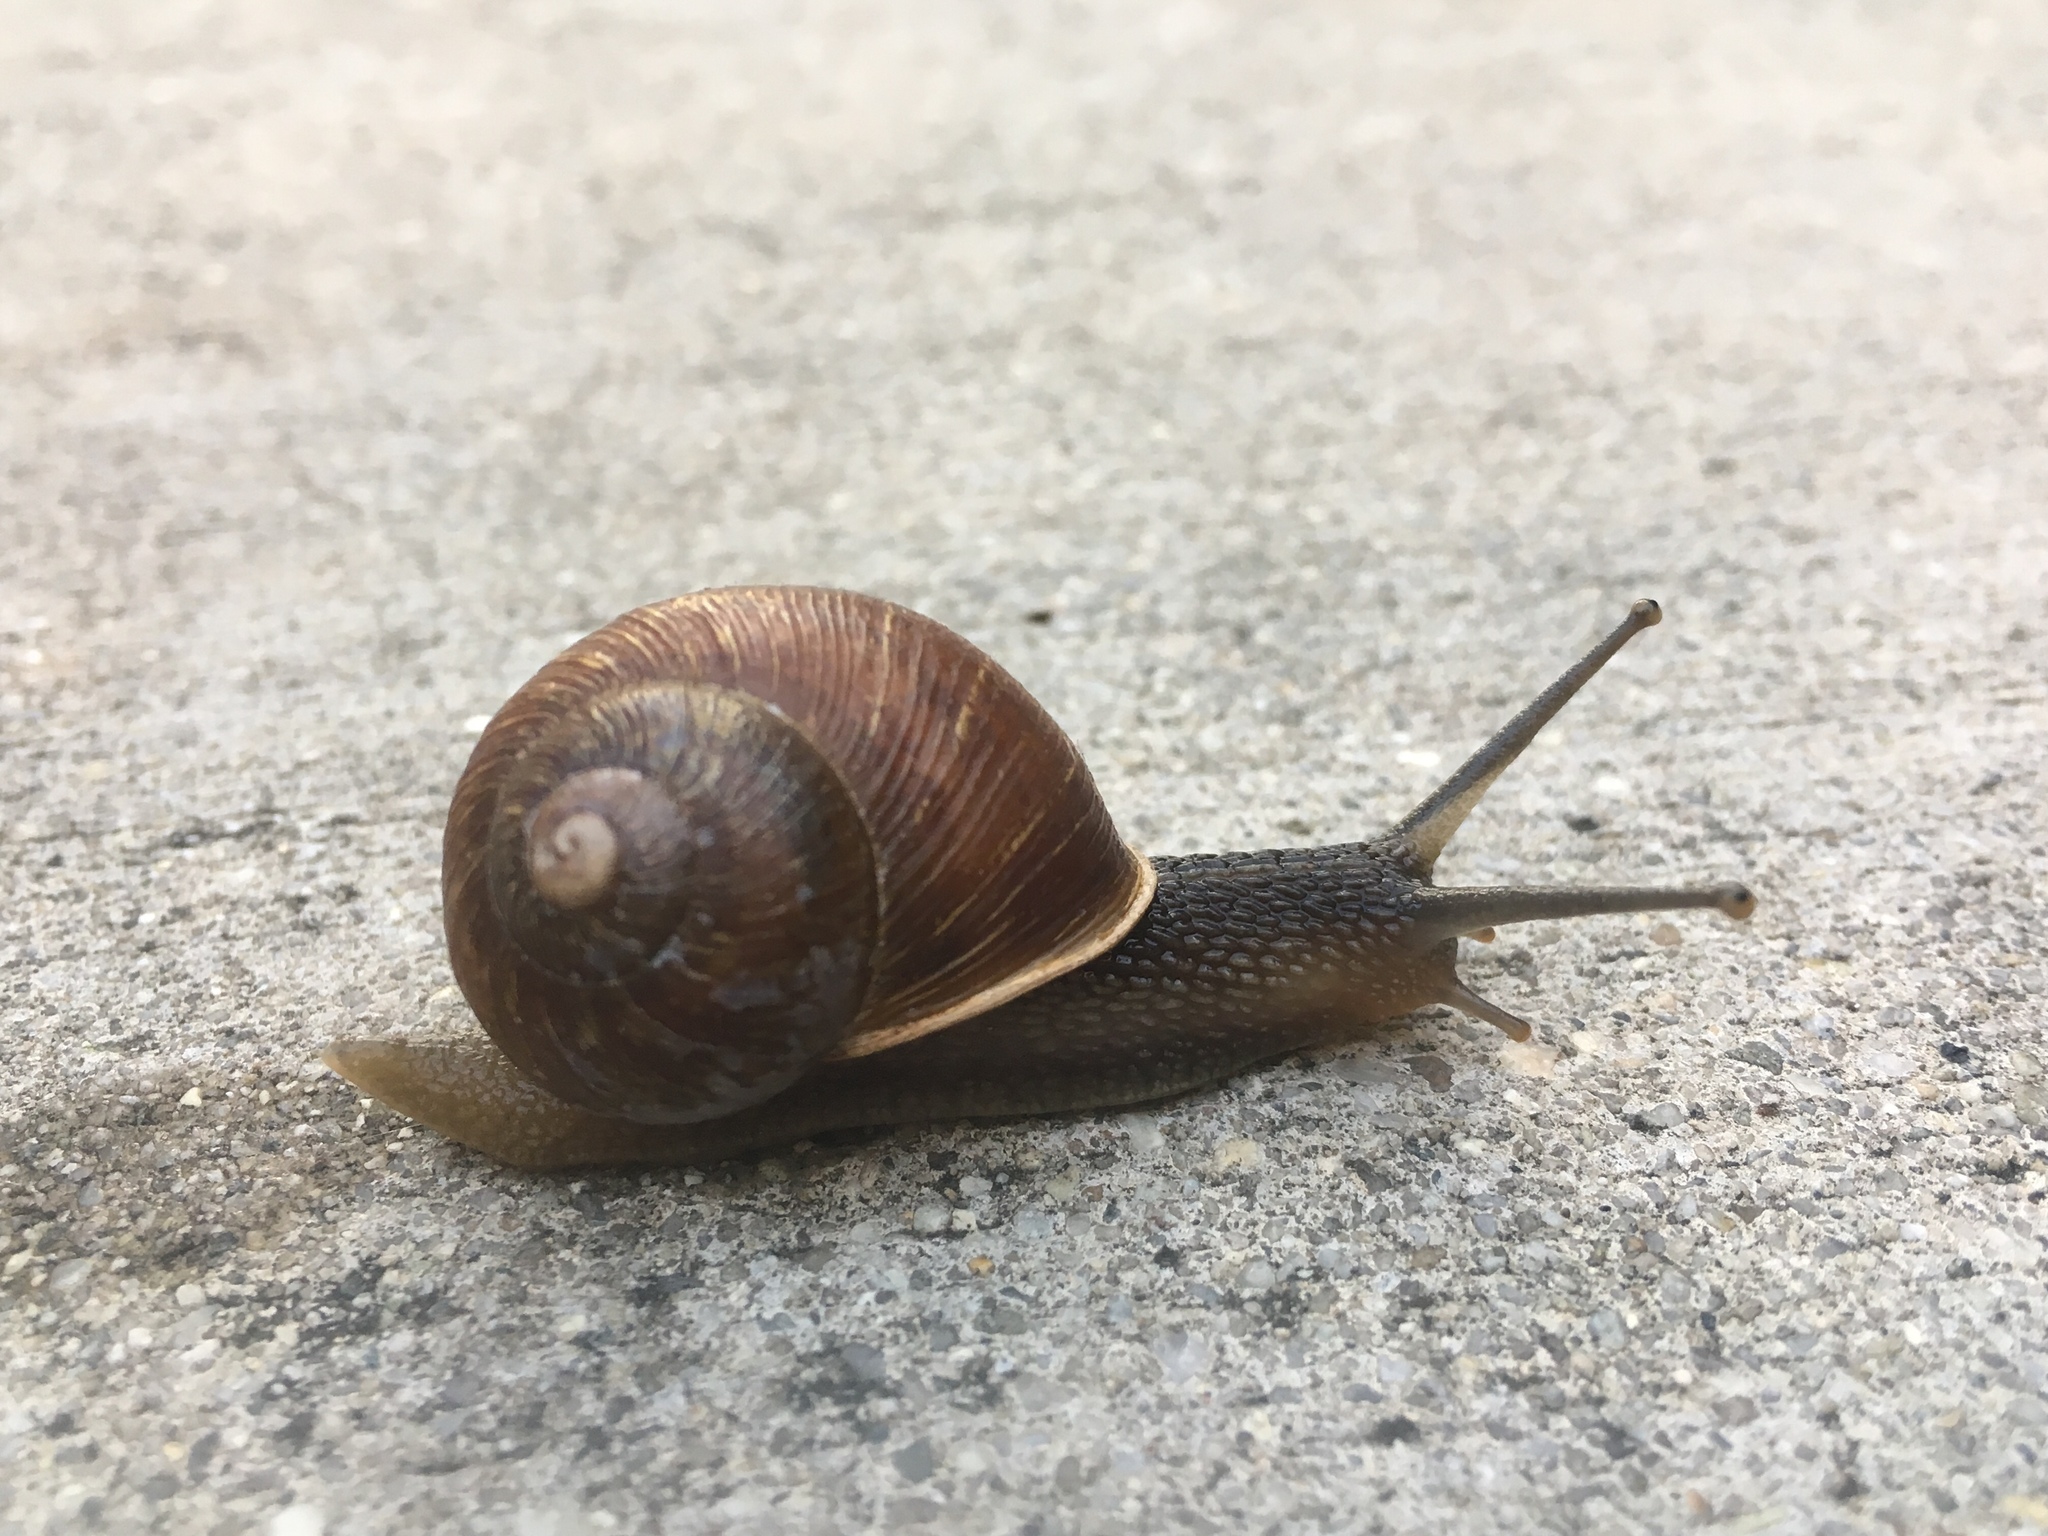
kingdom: Animalia
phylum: Mollusca
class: Gastropoda
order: Stylommatophora
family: Helicidae
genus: Cornu
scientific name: Cornu aspersum
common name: Brown garden snail
